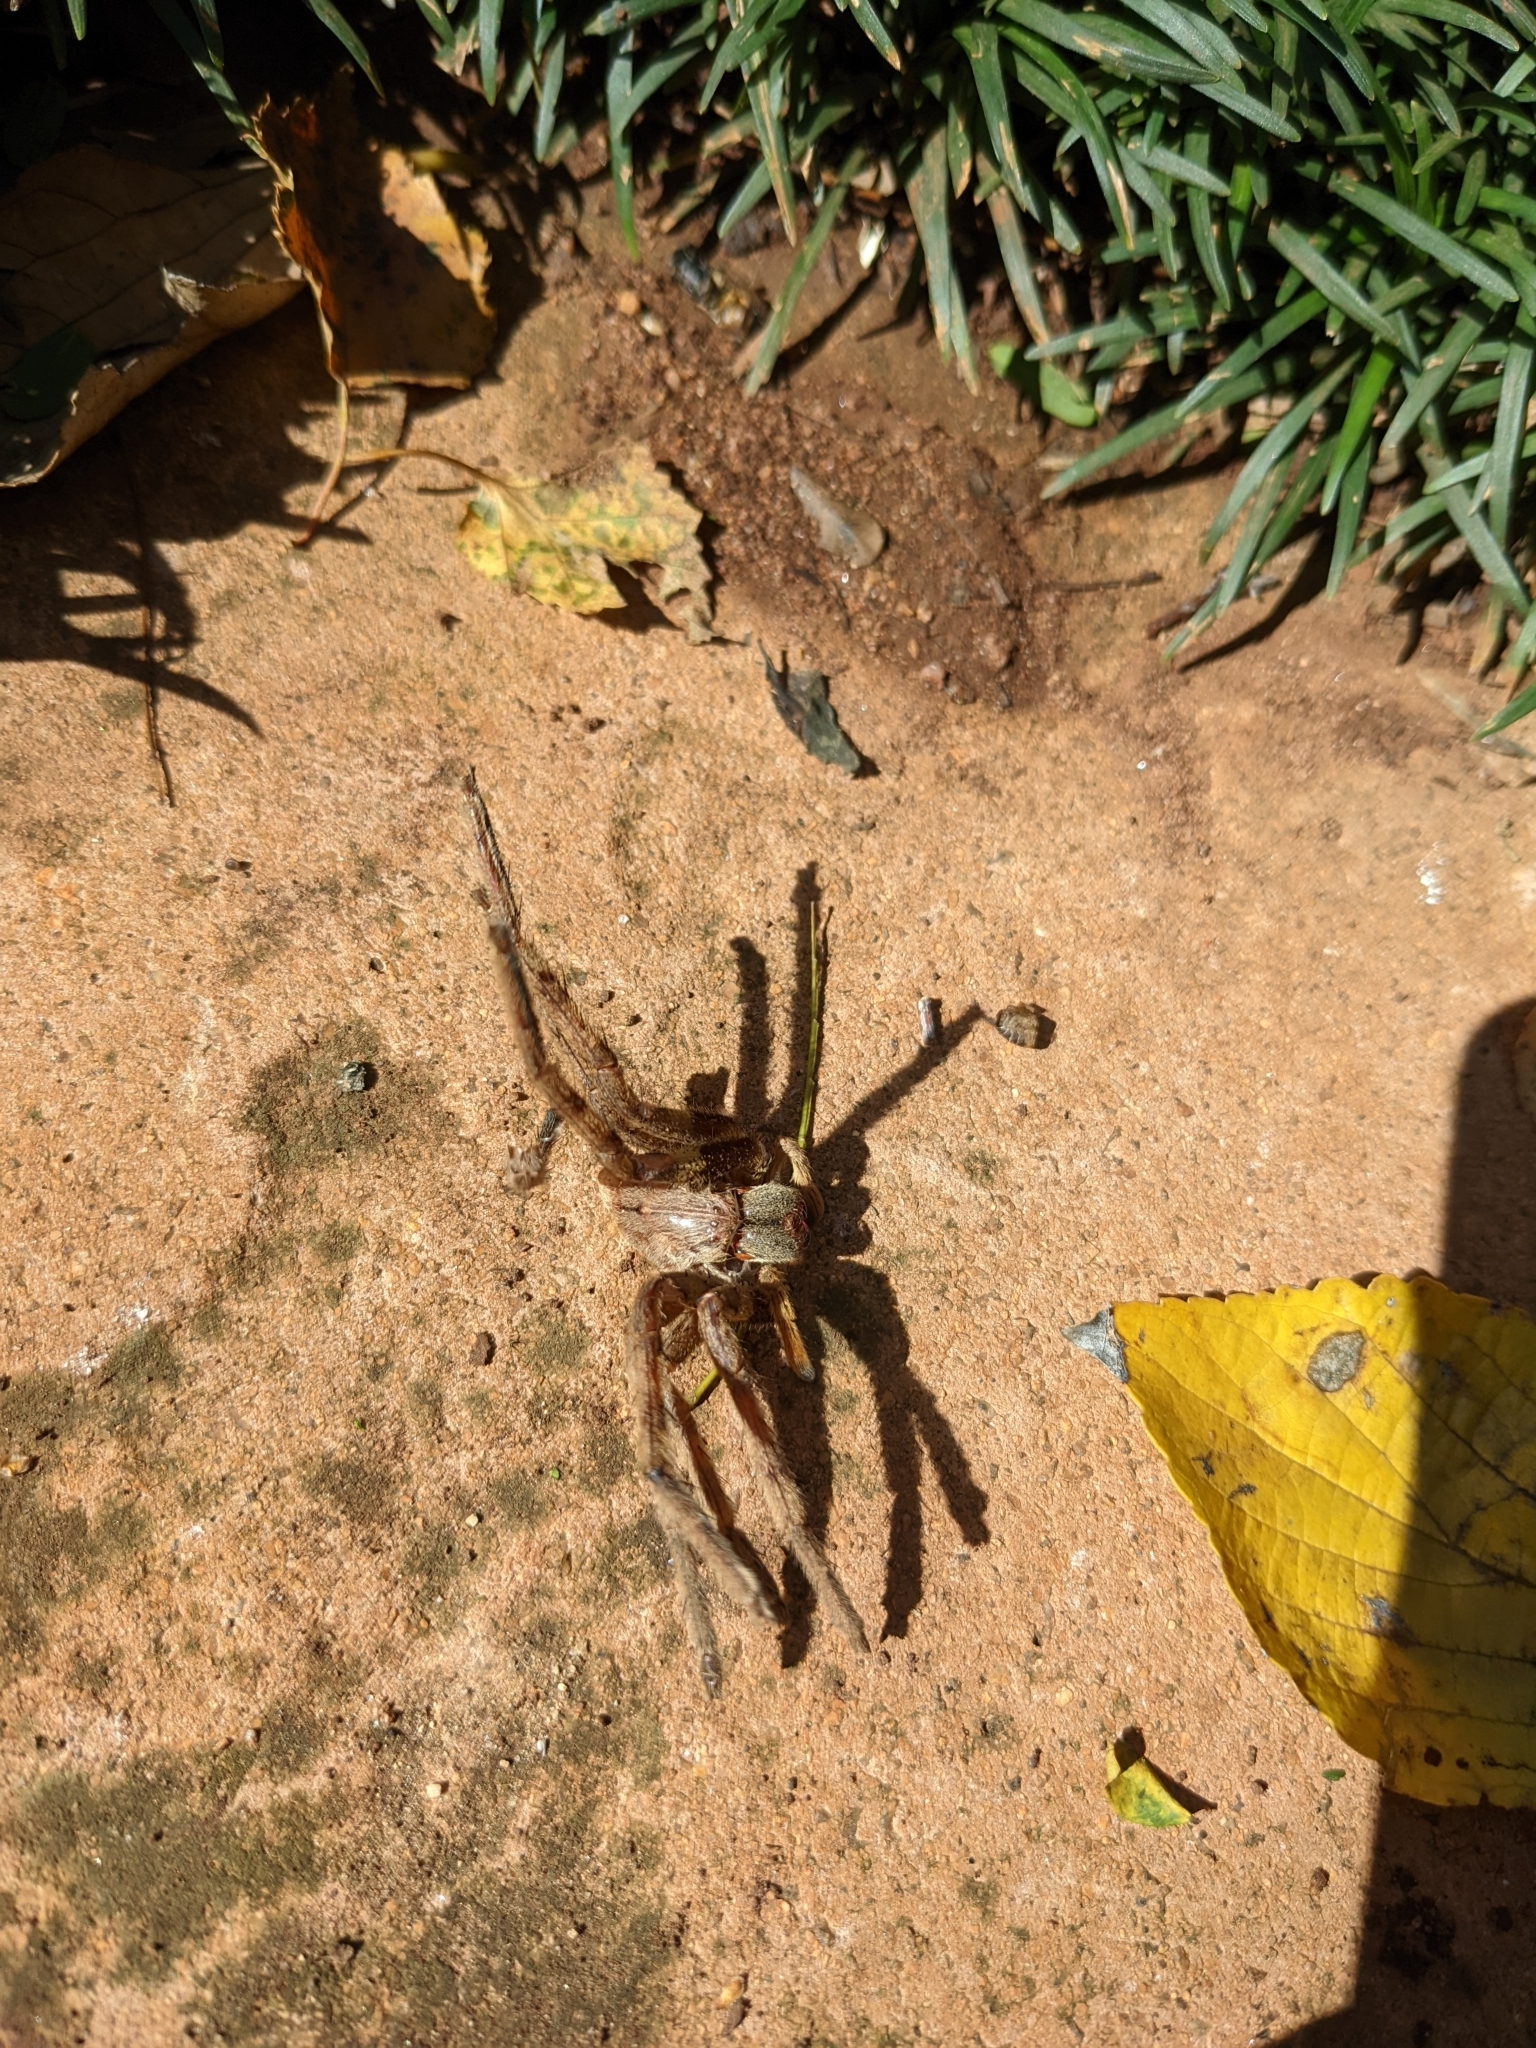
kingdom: Animalia
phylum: Arthropoda
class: Arachnida
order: Araneae
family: Sparassidae
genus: Palystes
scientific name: Palystes superciliosus
